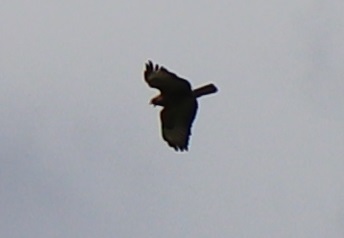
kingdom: Animalia
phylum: Chordata
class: Aves
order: Accipitriformes
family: Accipitridae
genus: Buteo
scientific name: Buteo buteo
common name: Common buzzard
